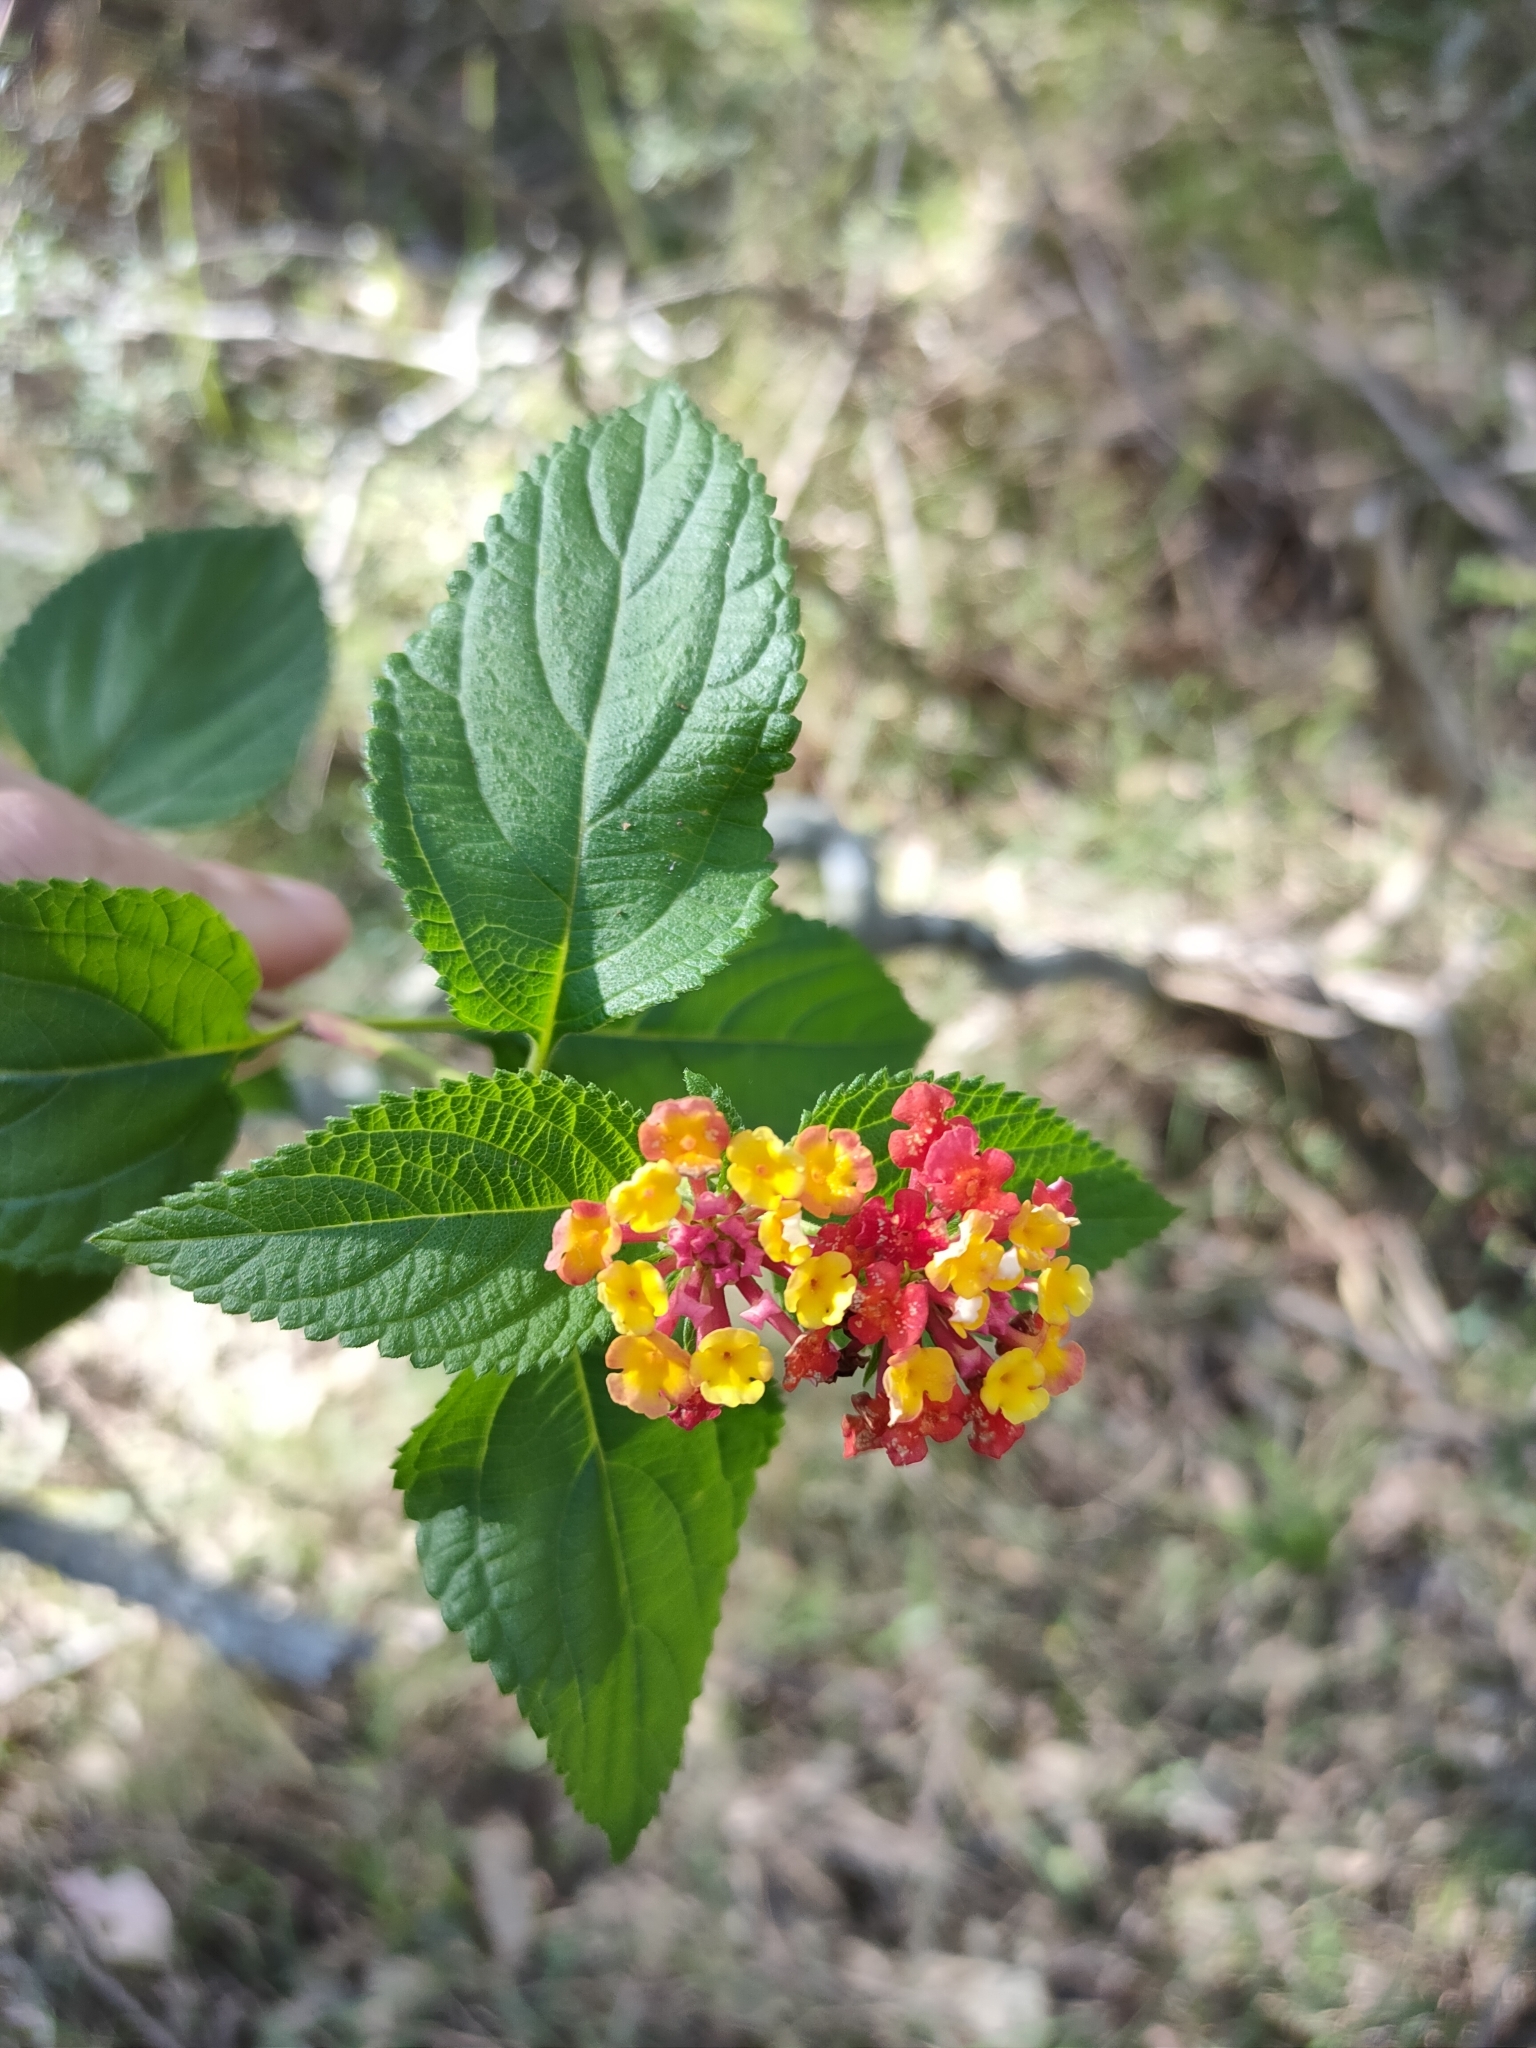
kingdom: Plantae
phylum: Tracheophyta
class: Magnoliopsida
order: Lamiales
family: Verbenaceae
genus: Lantana
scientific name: Lantana camara
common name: Lantana
